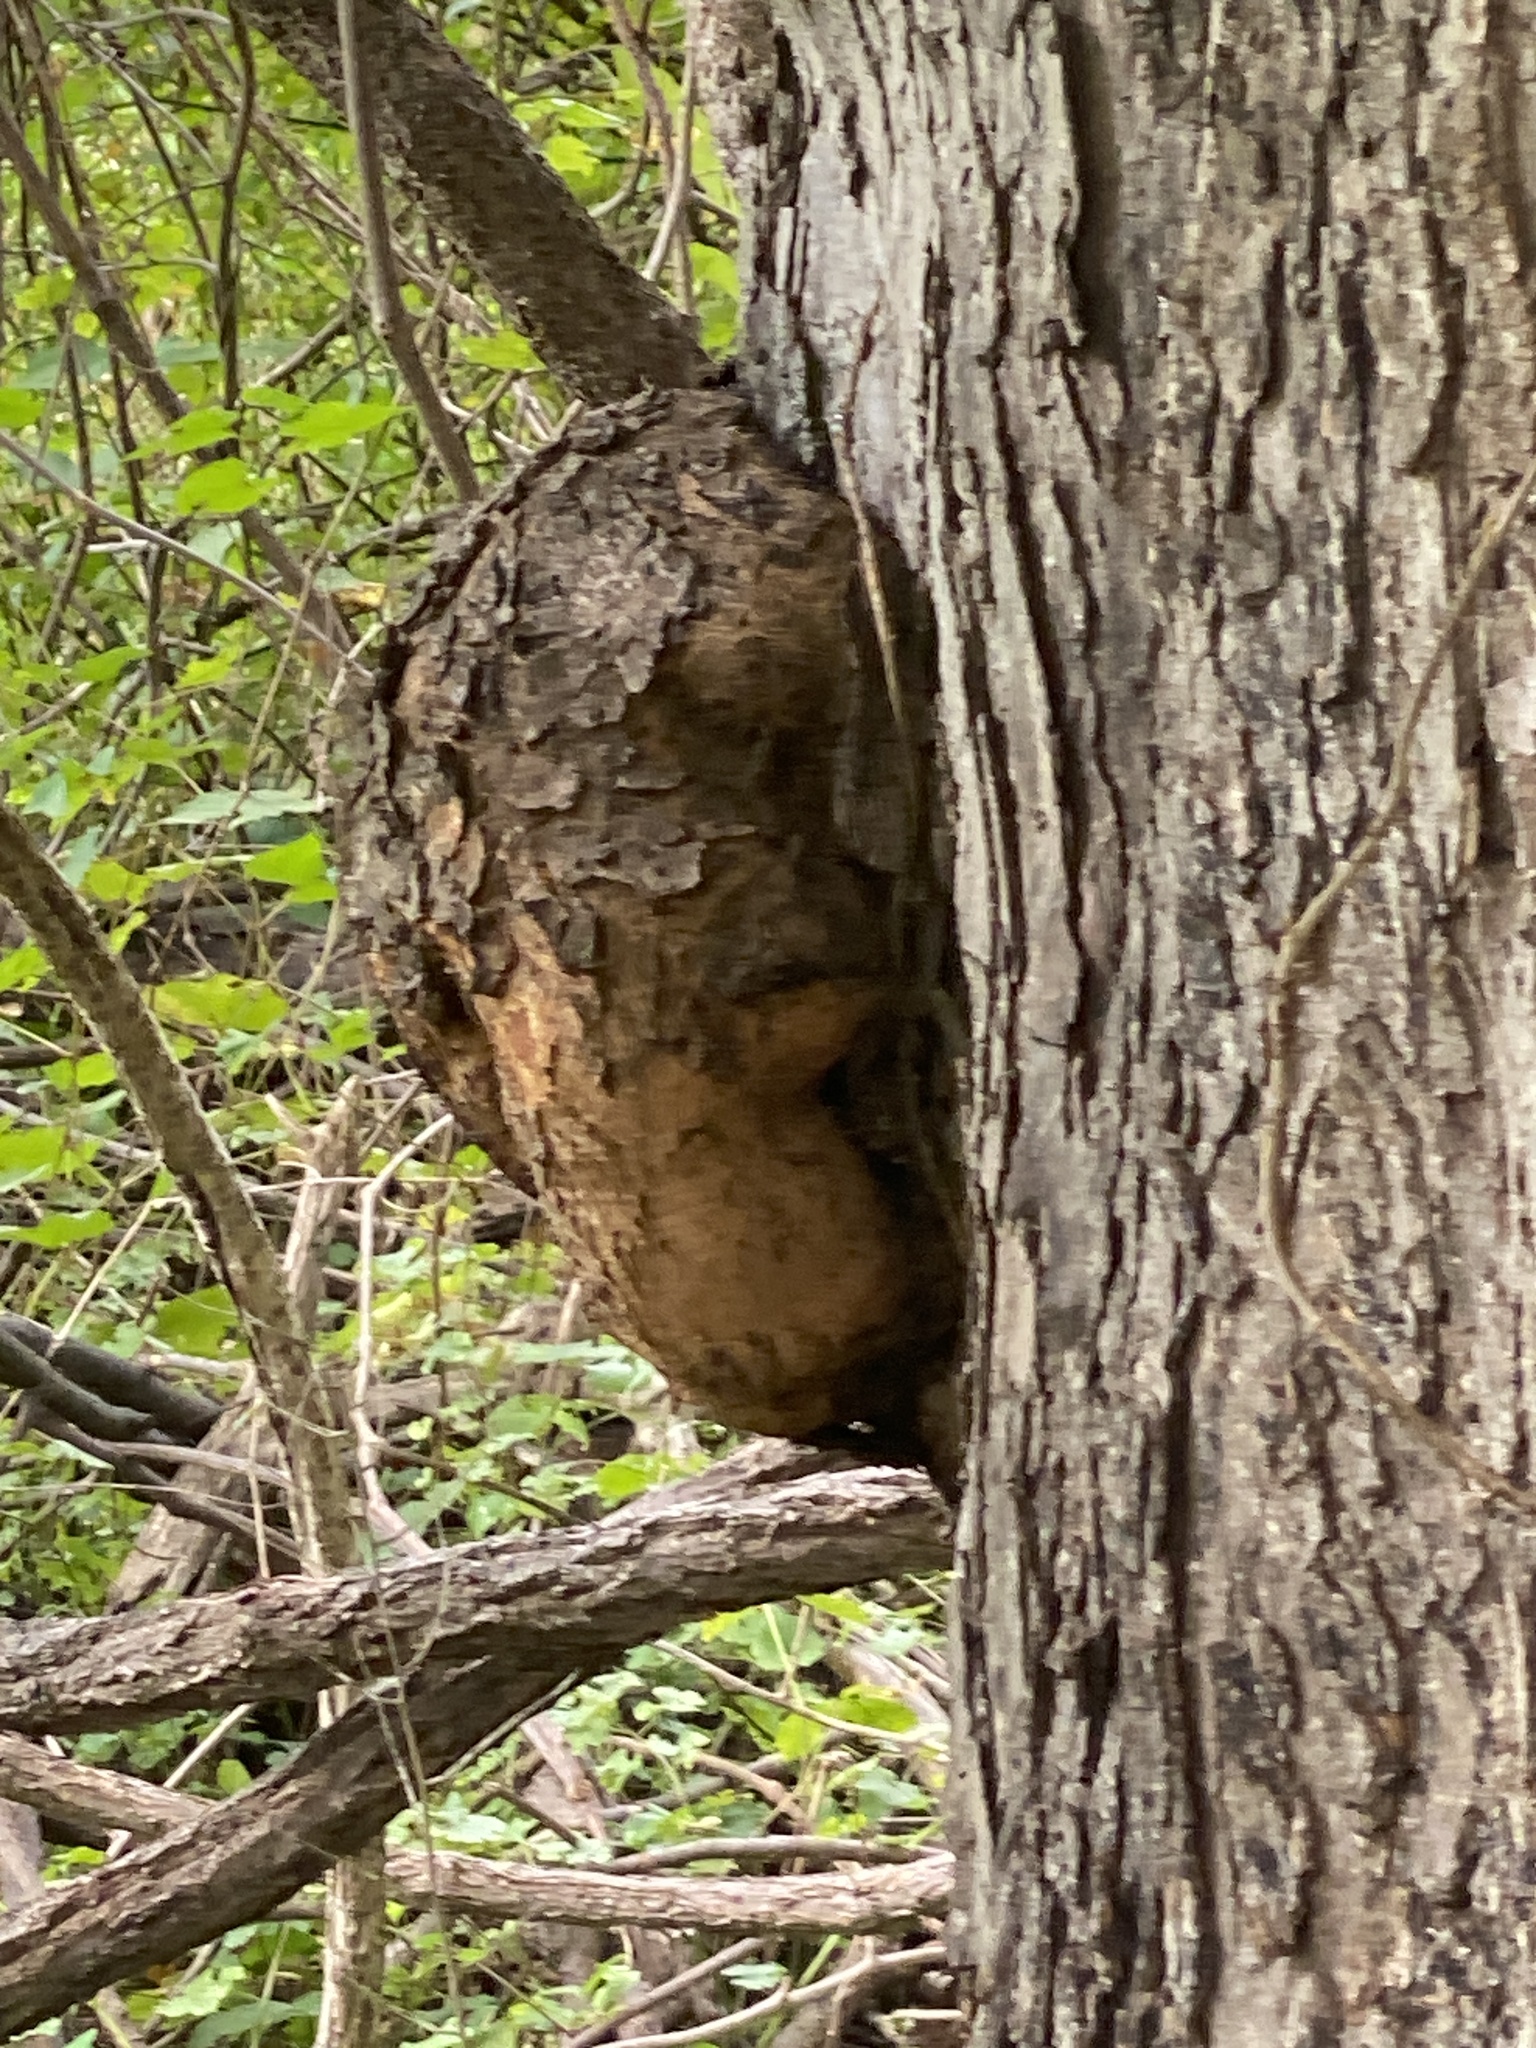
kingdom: Bacteria
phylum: Proteobacteria
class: Alphaproteobacteria
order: Rhizobiales
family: Rhizobiaceae
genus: Rhizobium
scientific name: Rhizobium Agrobacterium radiobacter
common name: Bacterial crown gall
